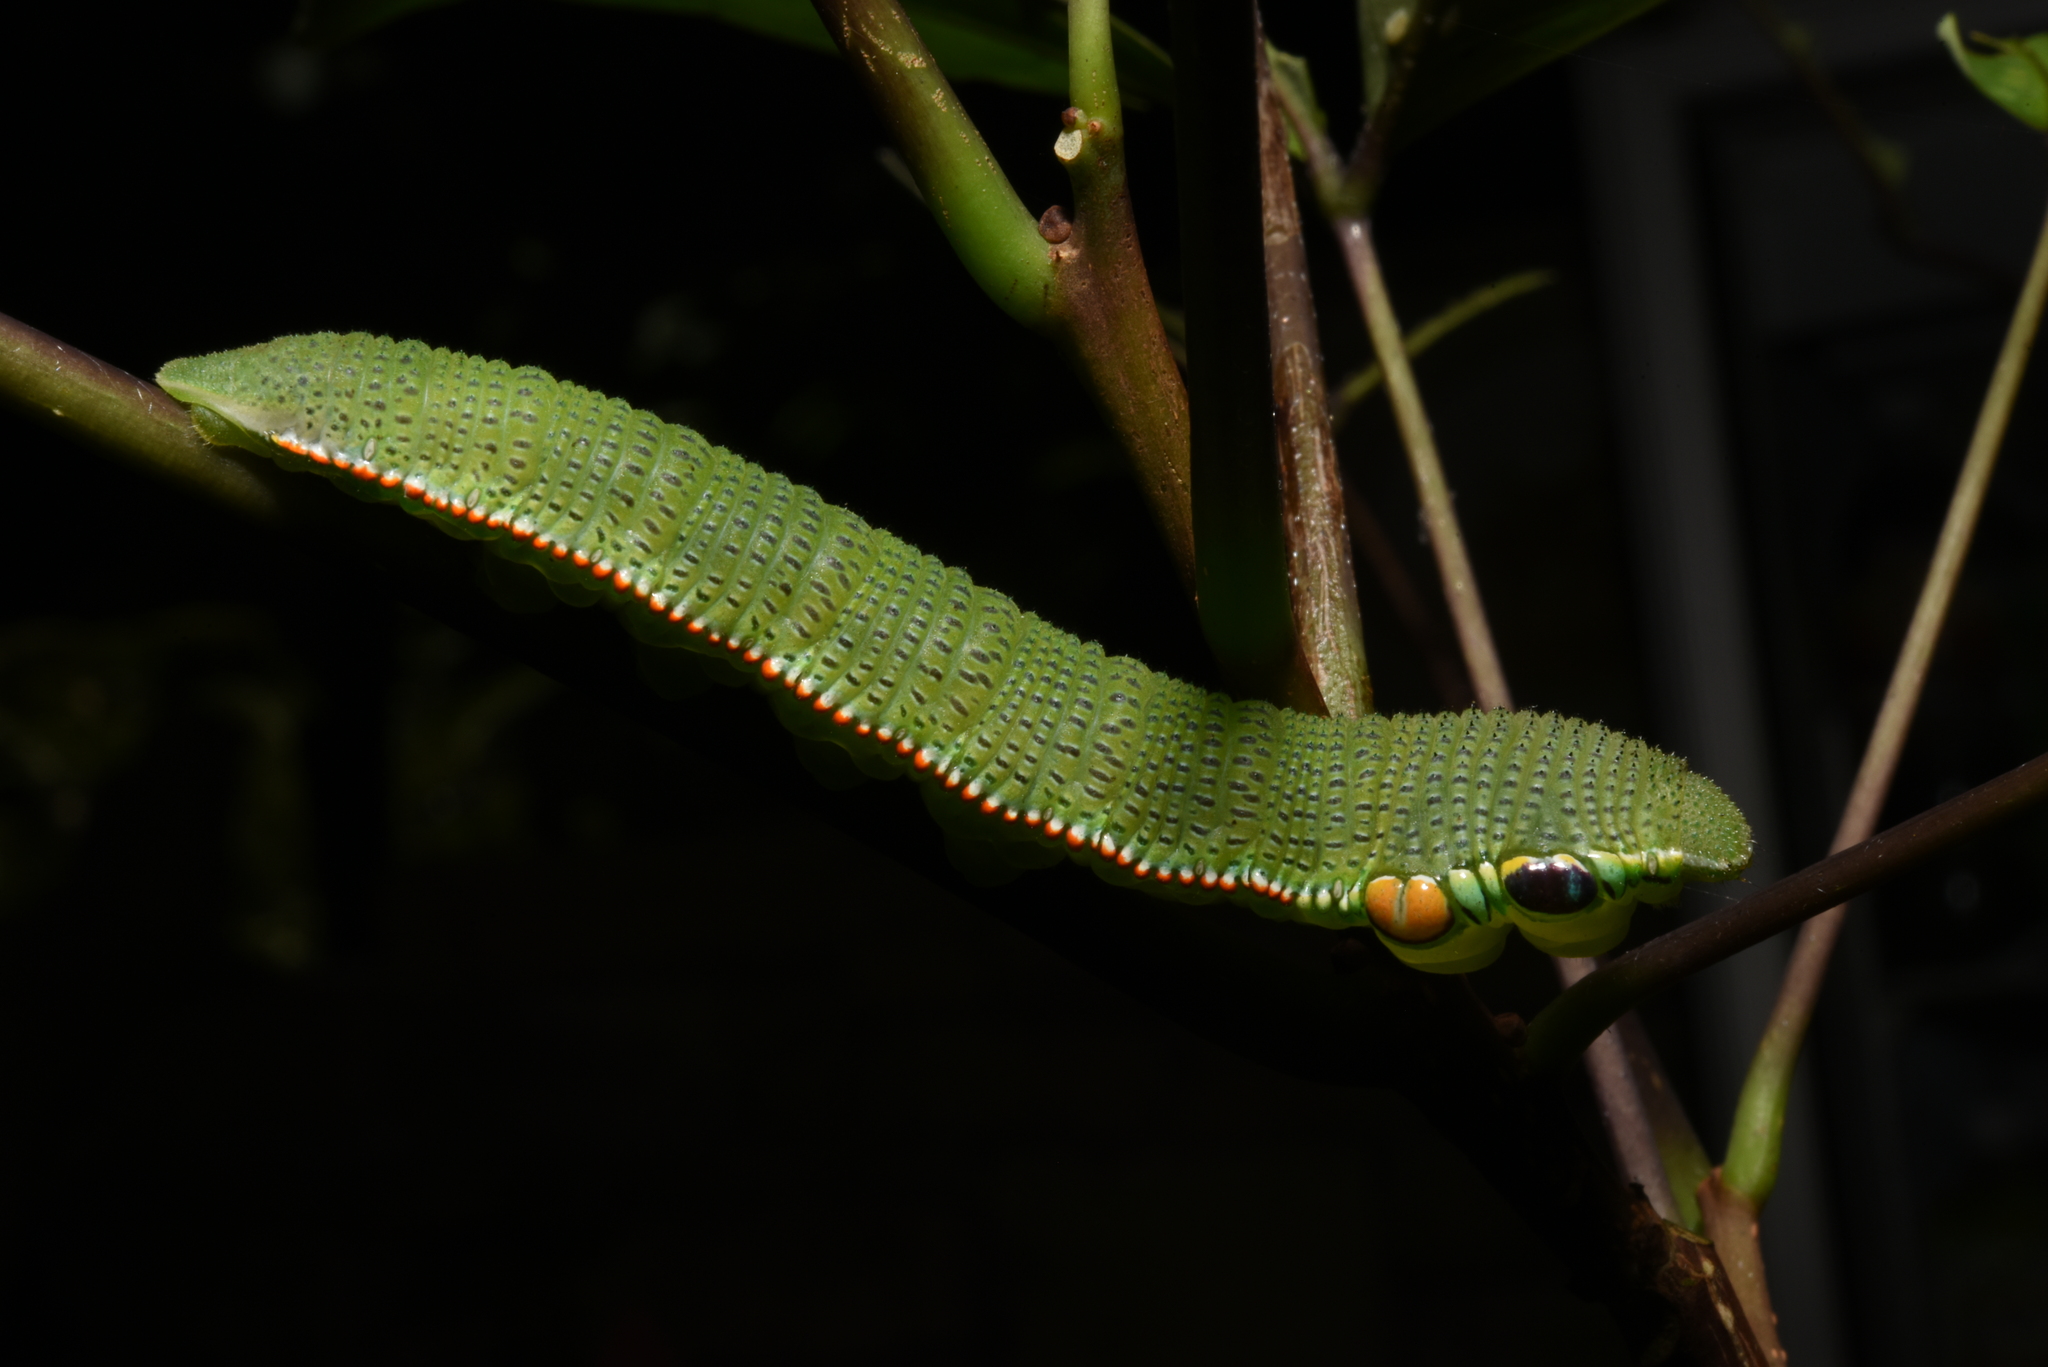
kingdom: Animalia
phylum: Arthropoda
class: Insecta
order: Lepidoptera
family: Pieridae
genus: Hebomoia
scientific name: Hebomoia glaucippe
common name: Great orange tip
